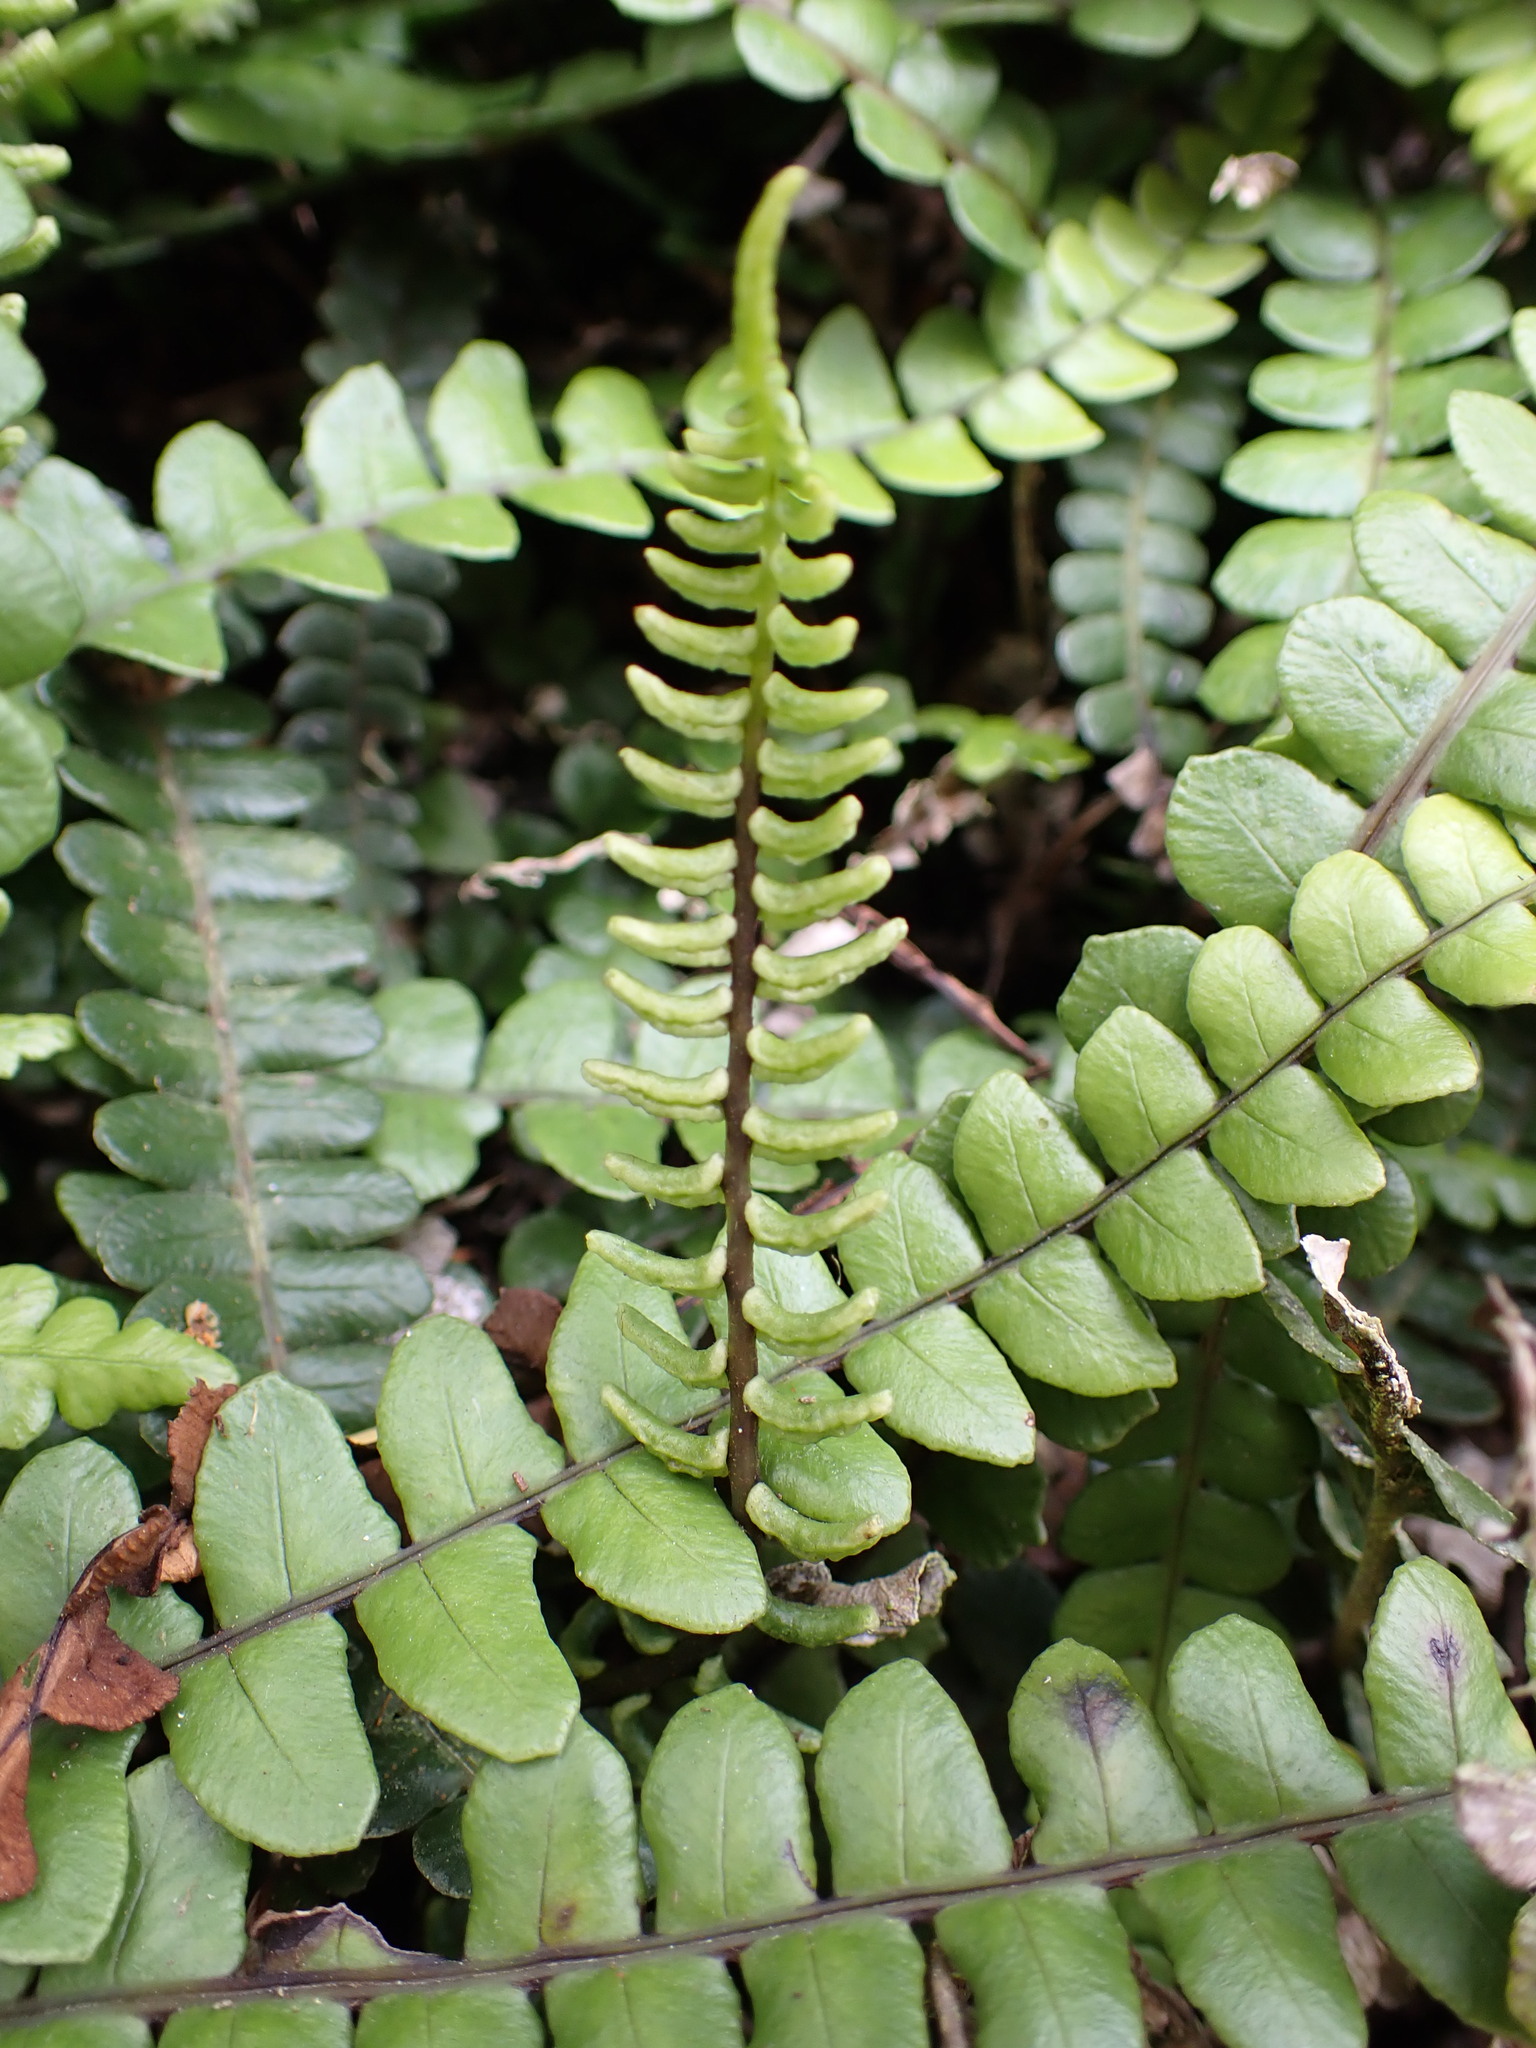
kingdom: Plantae
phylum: Tracheophyta
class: Polypodiopsida
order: Polypodiales
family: Blechnaceae
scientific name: Blechnaceae
